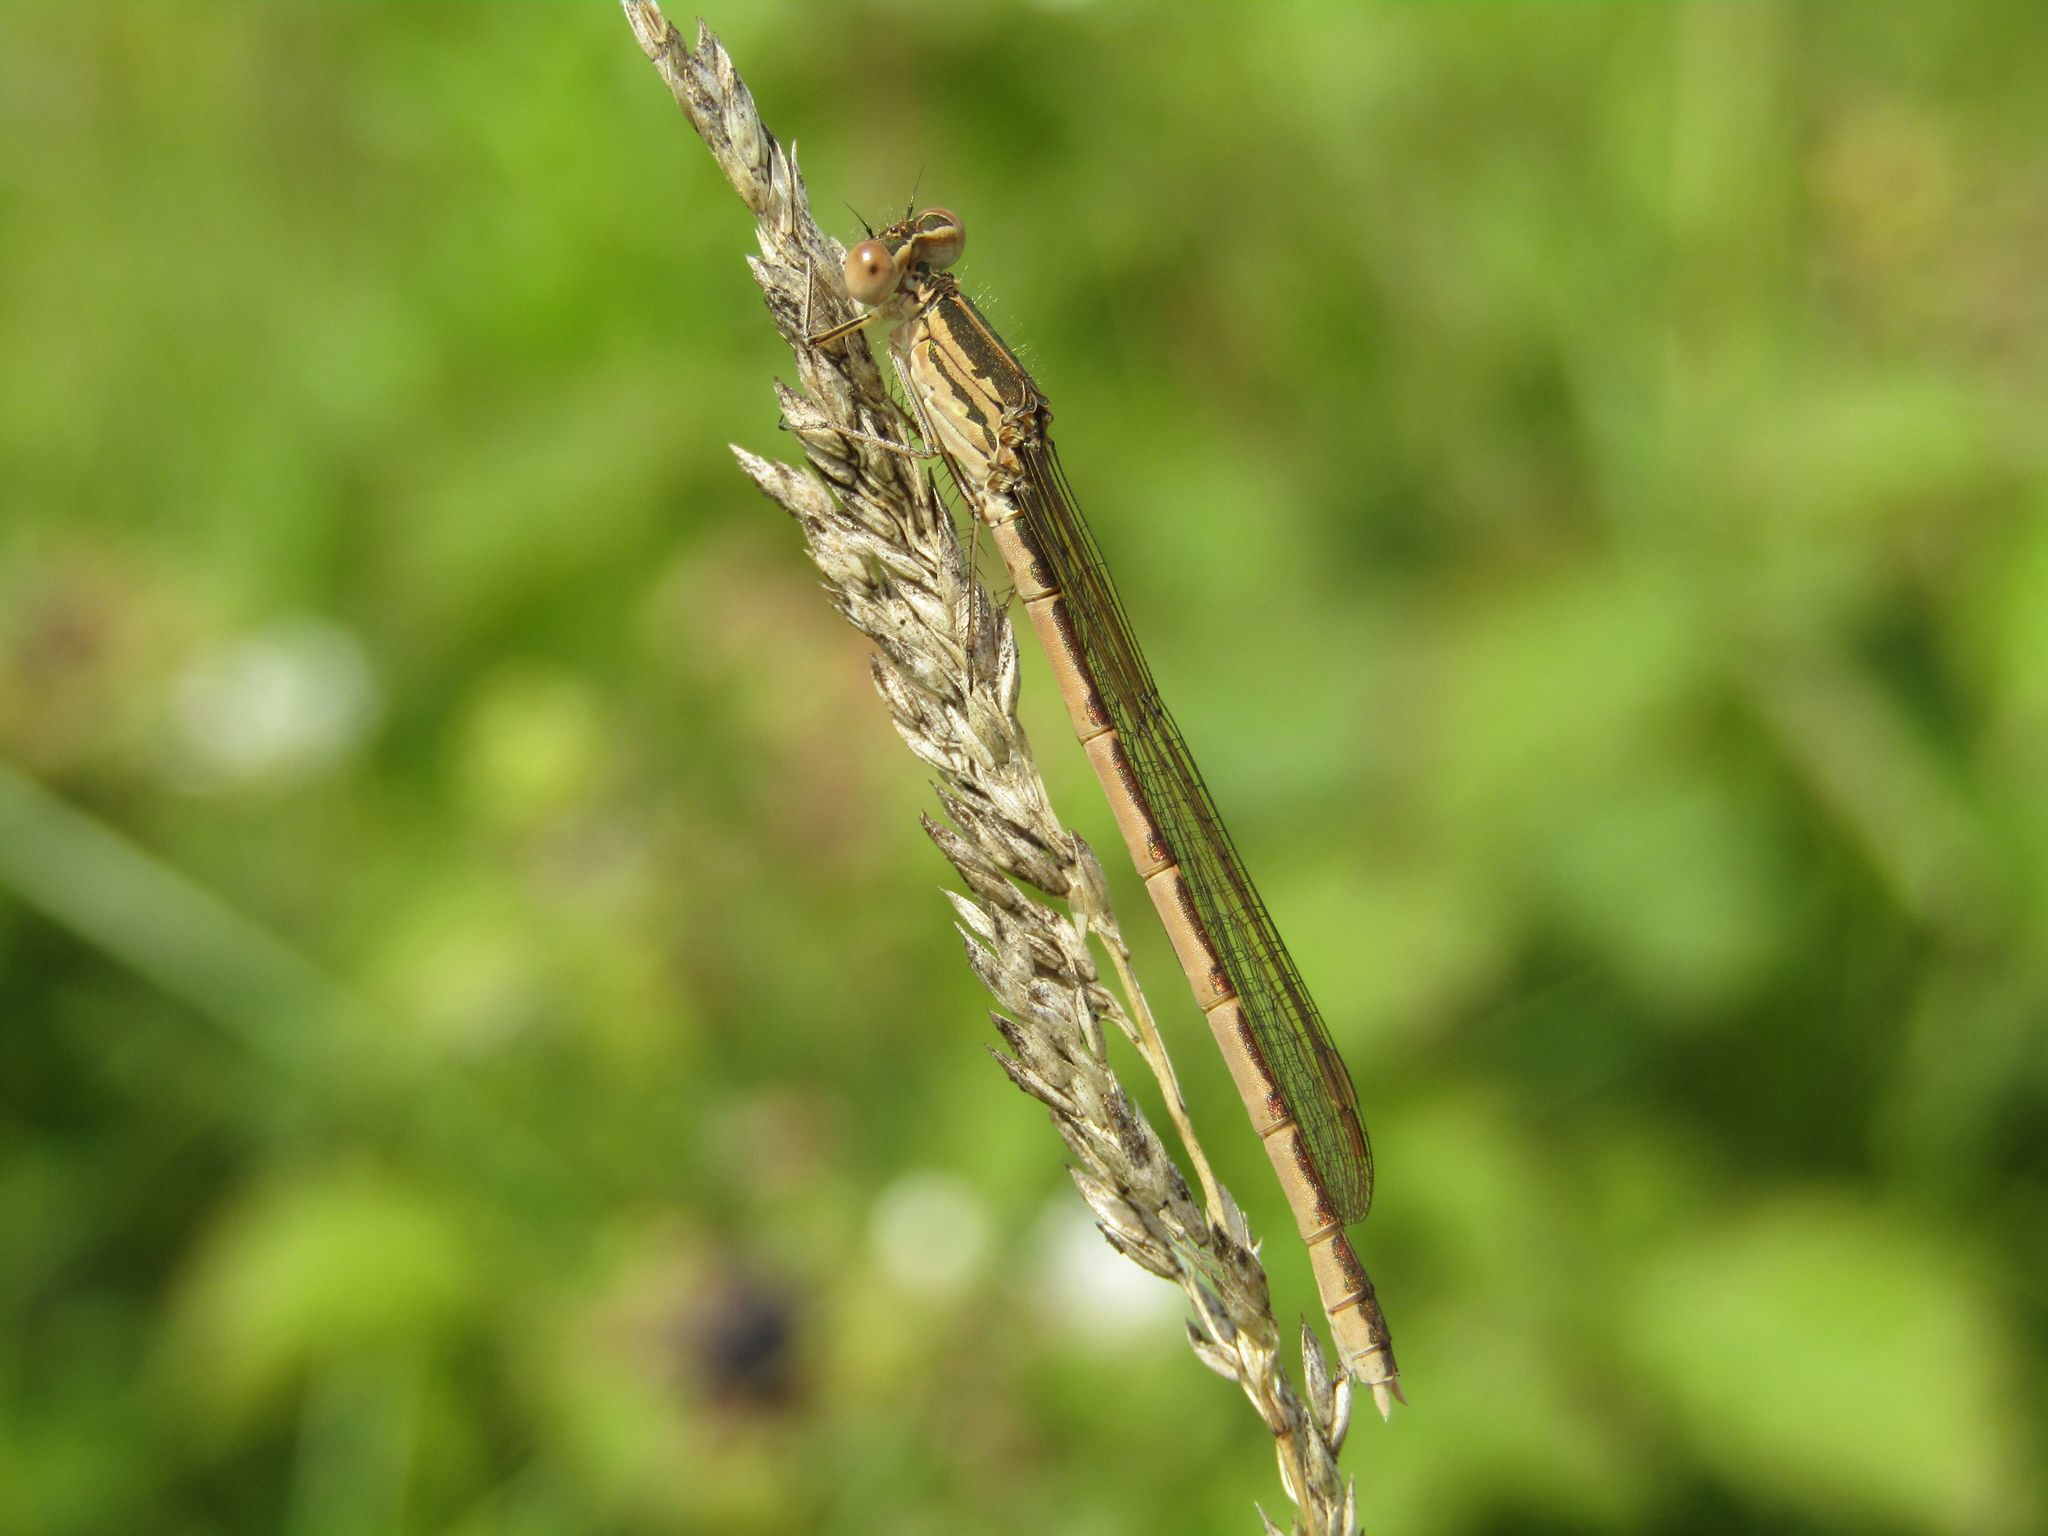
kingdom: Animalia
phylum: Arthropoda
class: Insecta
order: Odonata
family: Lestidae
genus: Sympecma
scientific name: Sympecma paedisca
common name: Siberian winter damsel
